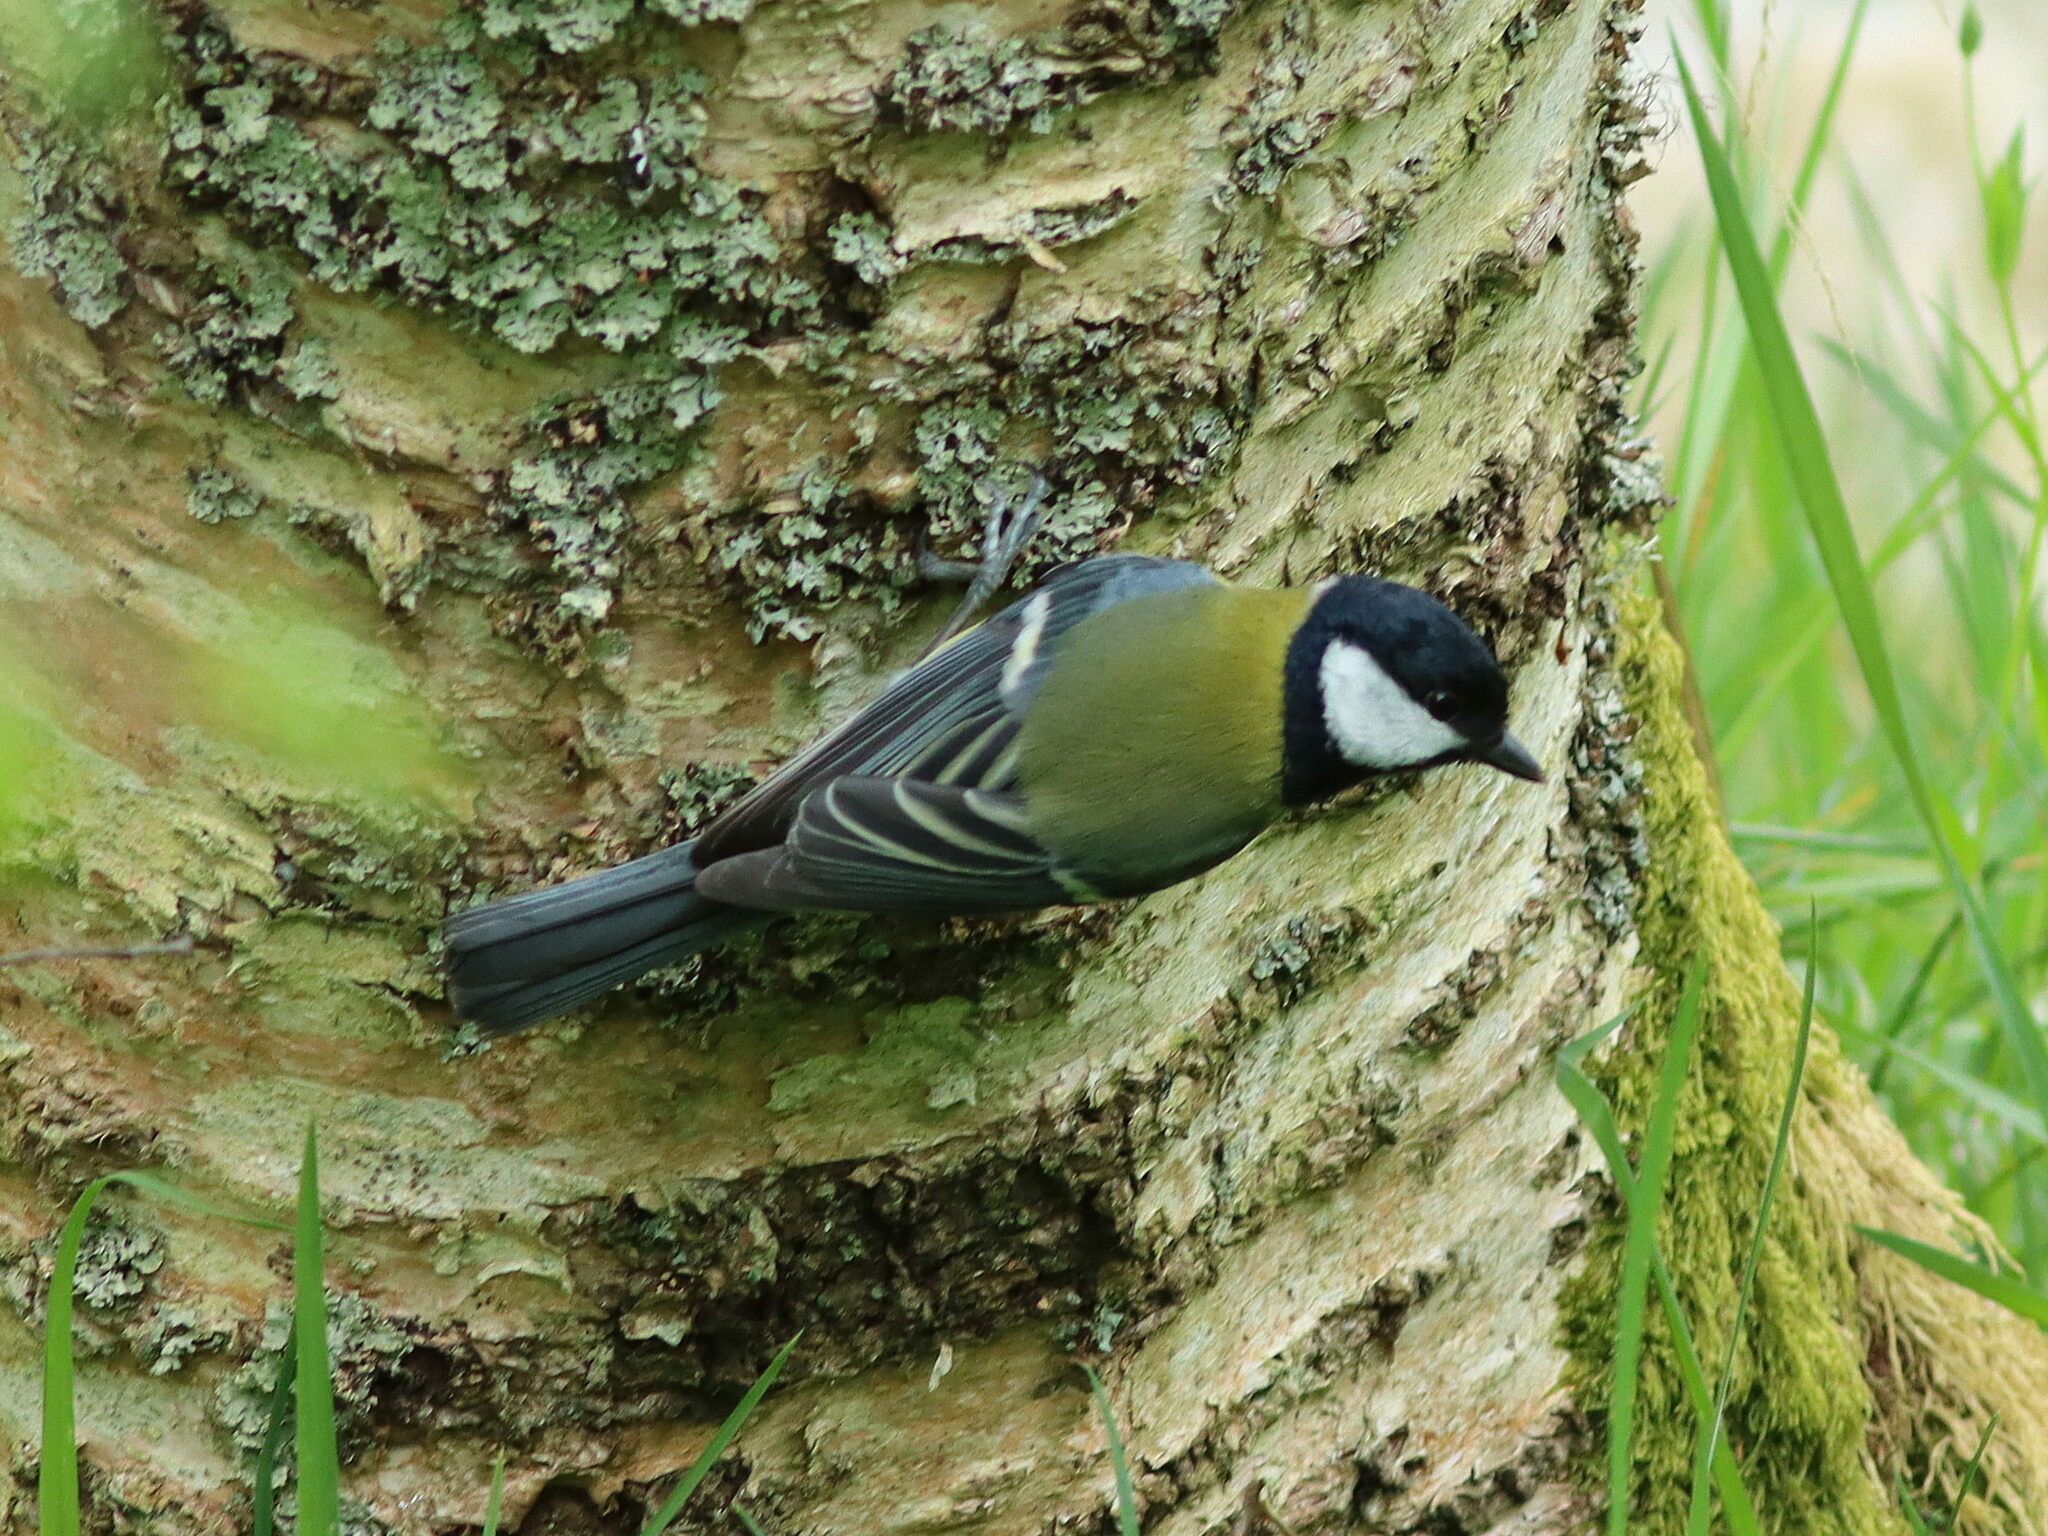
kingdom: Animalia
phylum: Chordata
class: Aves
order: Passeriformes
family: Paridae
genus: Parus
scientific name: Parus major
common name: Great tit
